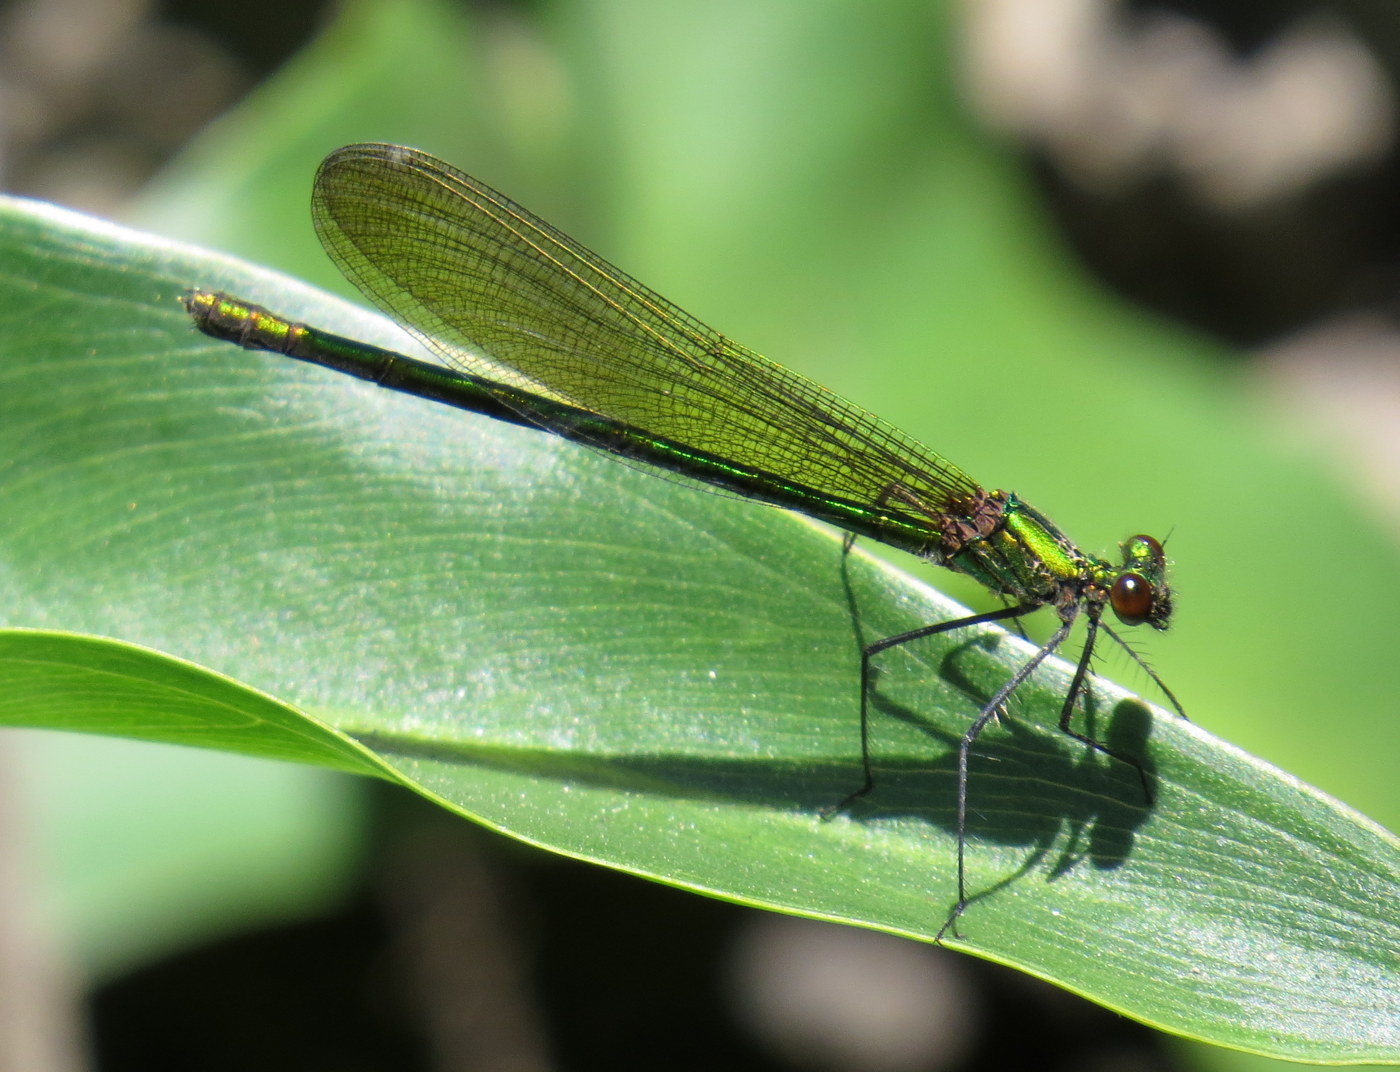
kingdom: Animalia
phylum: Arthropoda
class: Insecta
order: Odonata
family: Calopterygidae
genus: Calopteryx
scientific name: Calopteryx dimidiata
